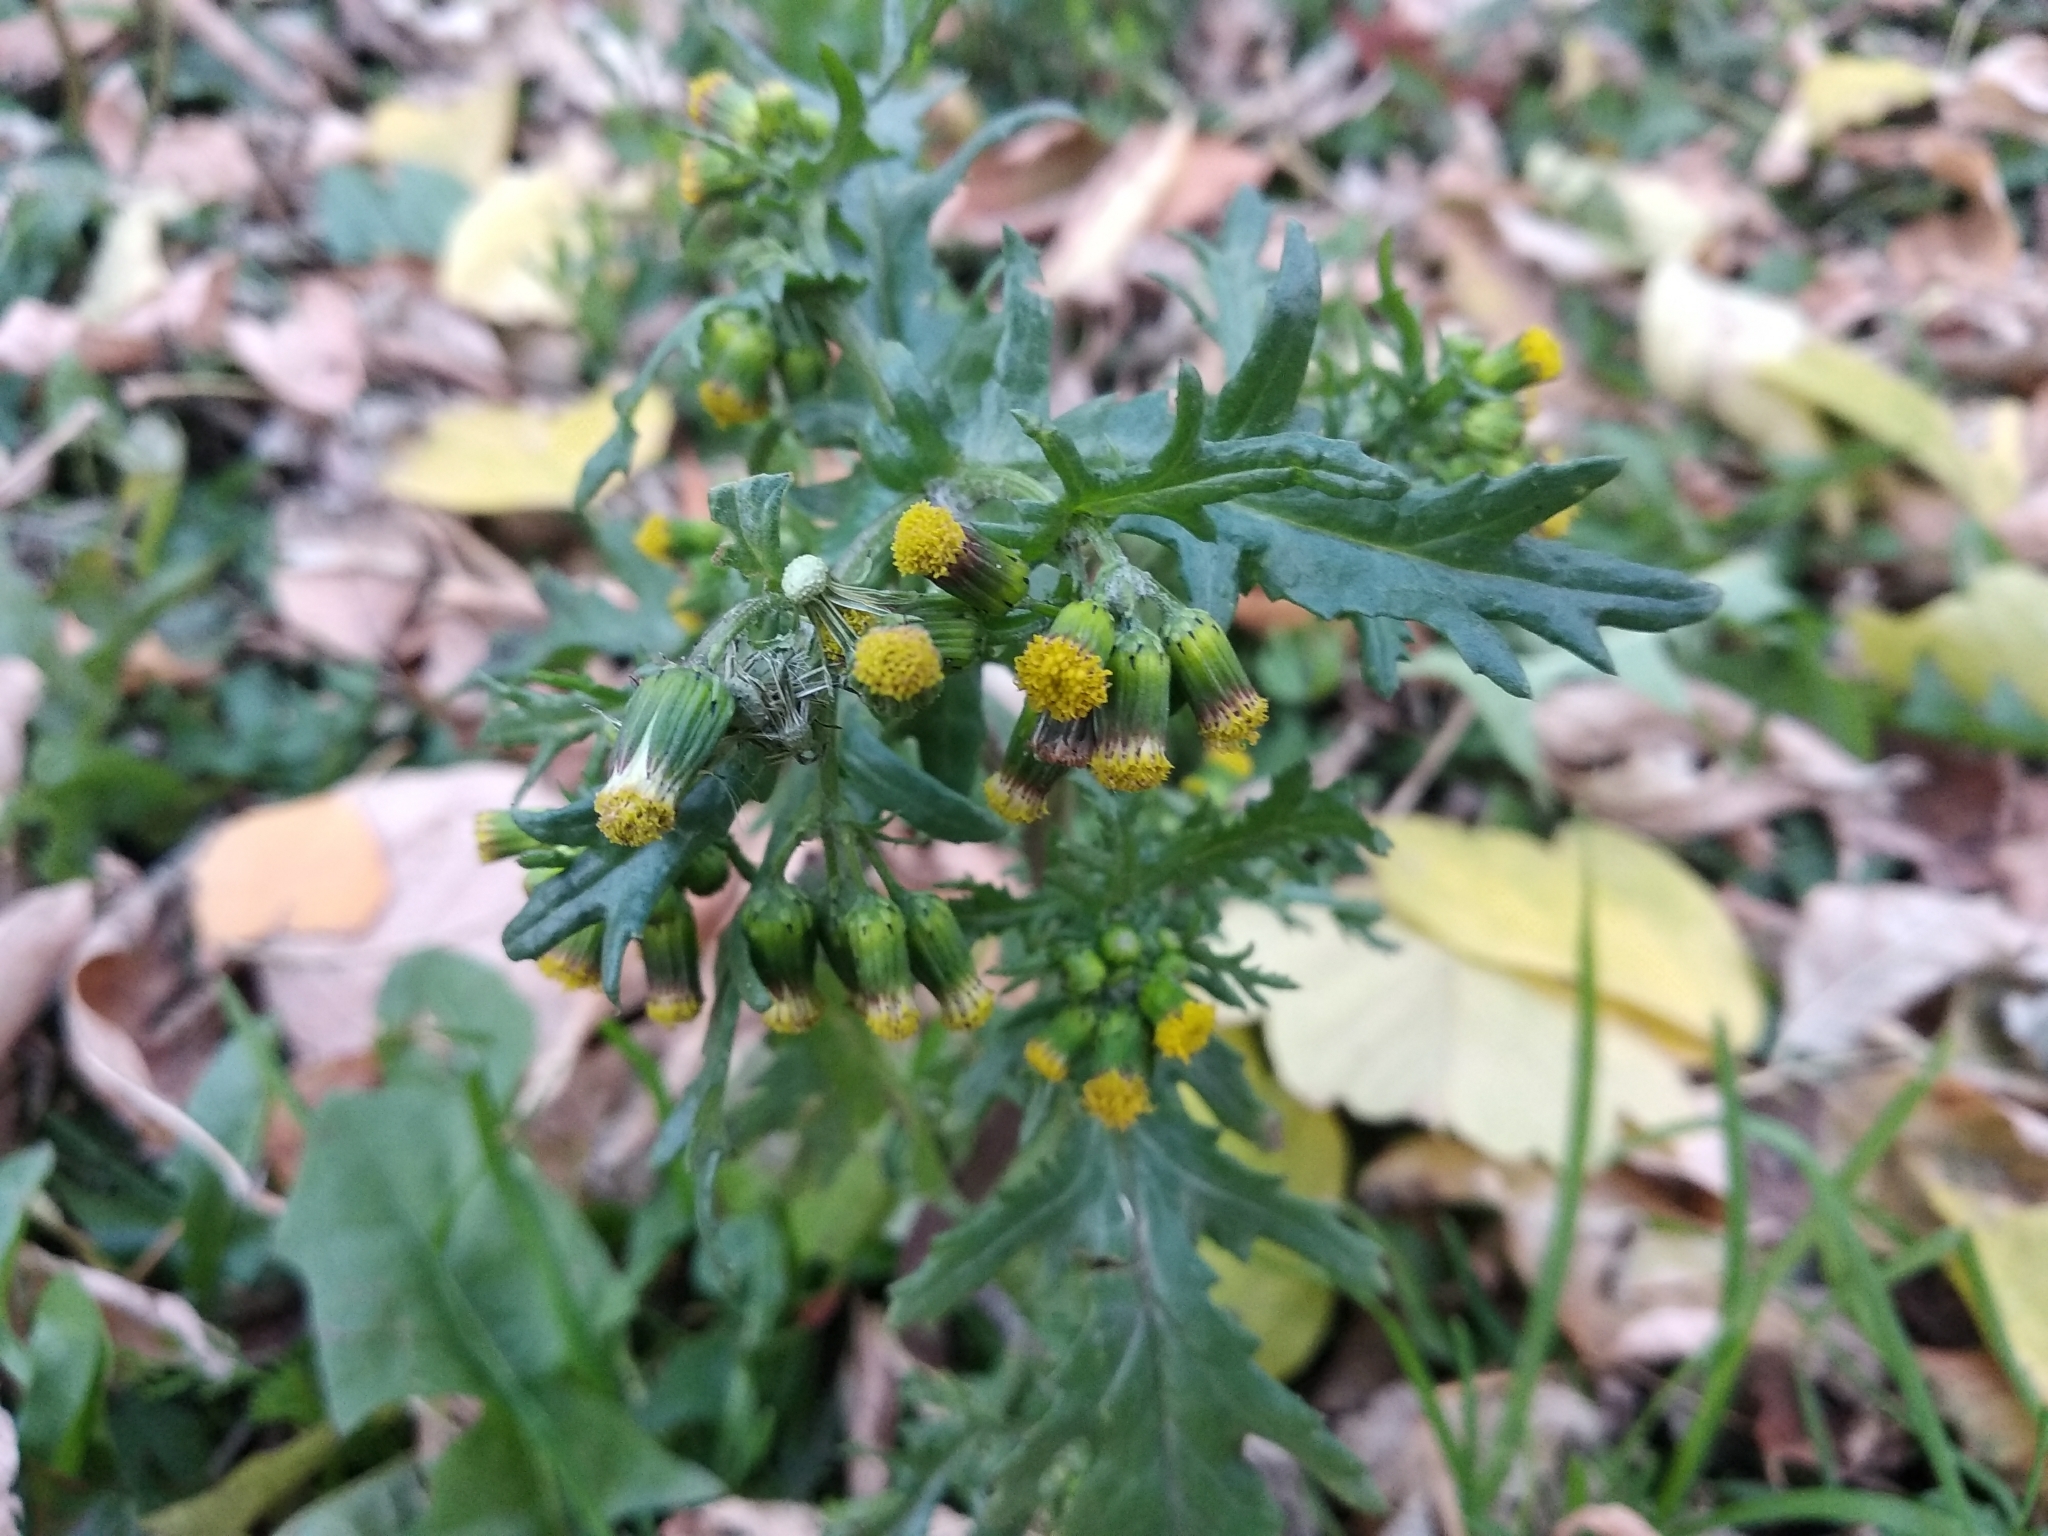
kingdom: Plantae
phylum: Tracheophyta
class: Magnoliopsida
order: Asterales
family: Asteraceae
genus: Senecio
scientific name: Senecio vulgaris
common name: Old-man-in-the-spring
